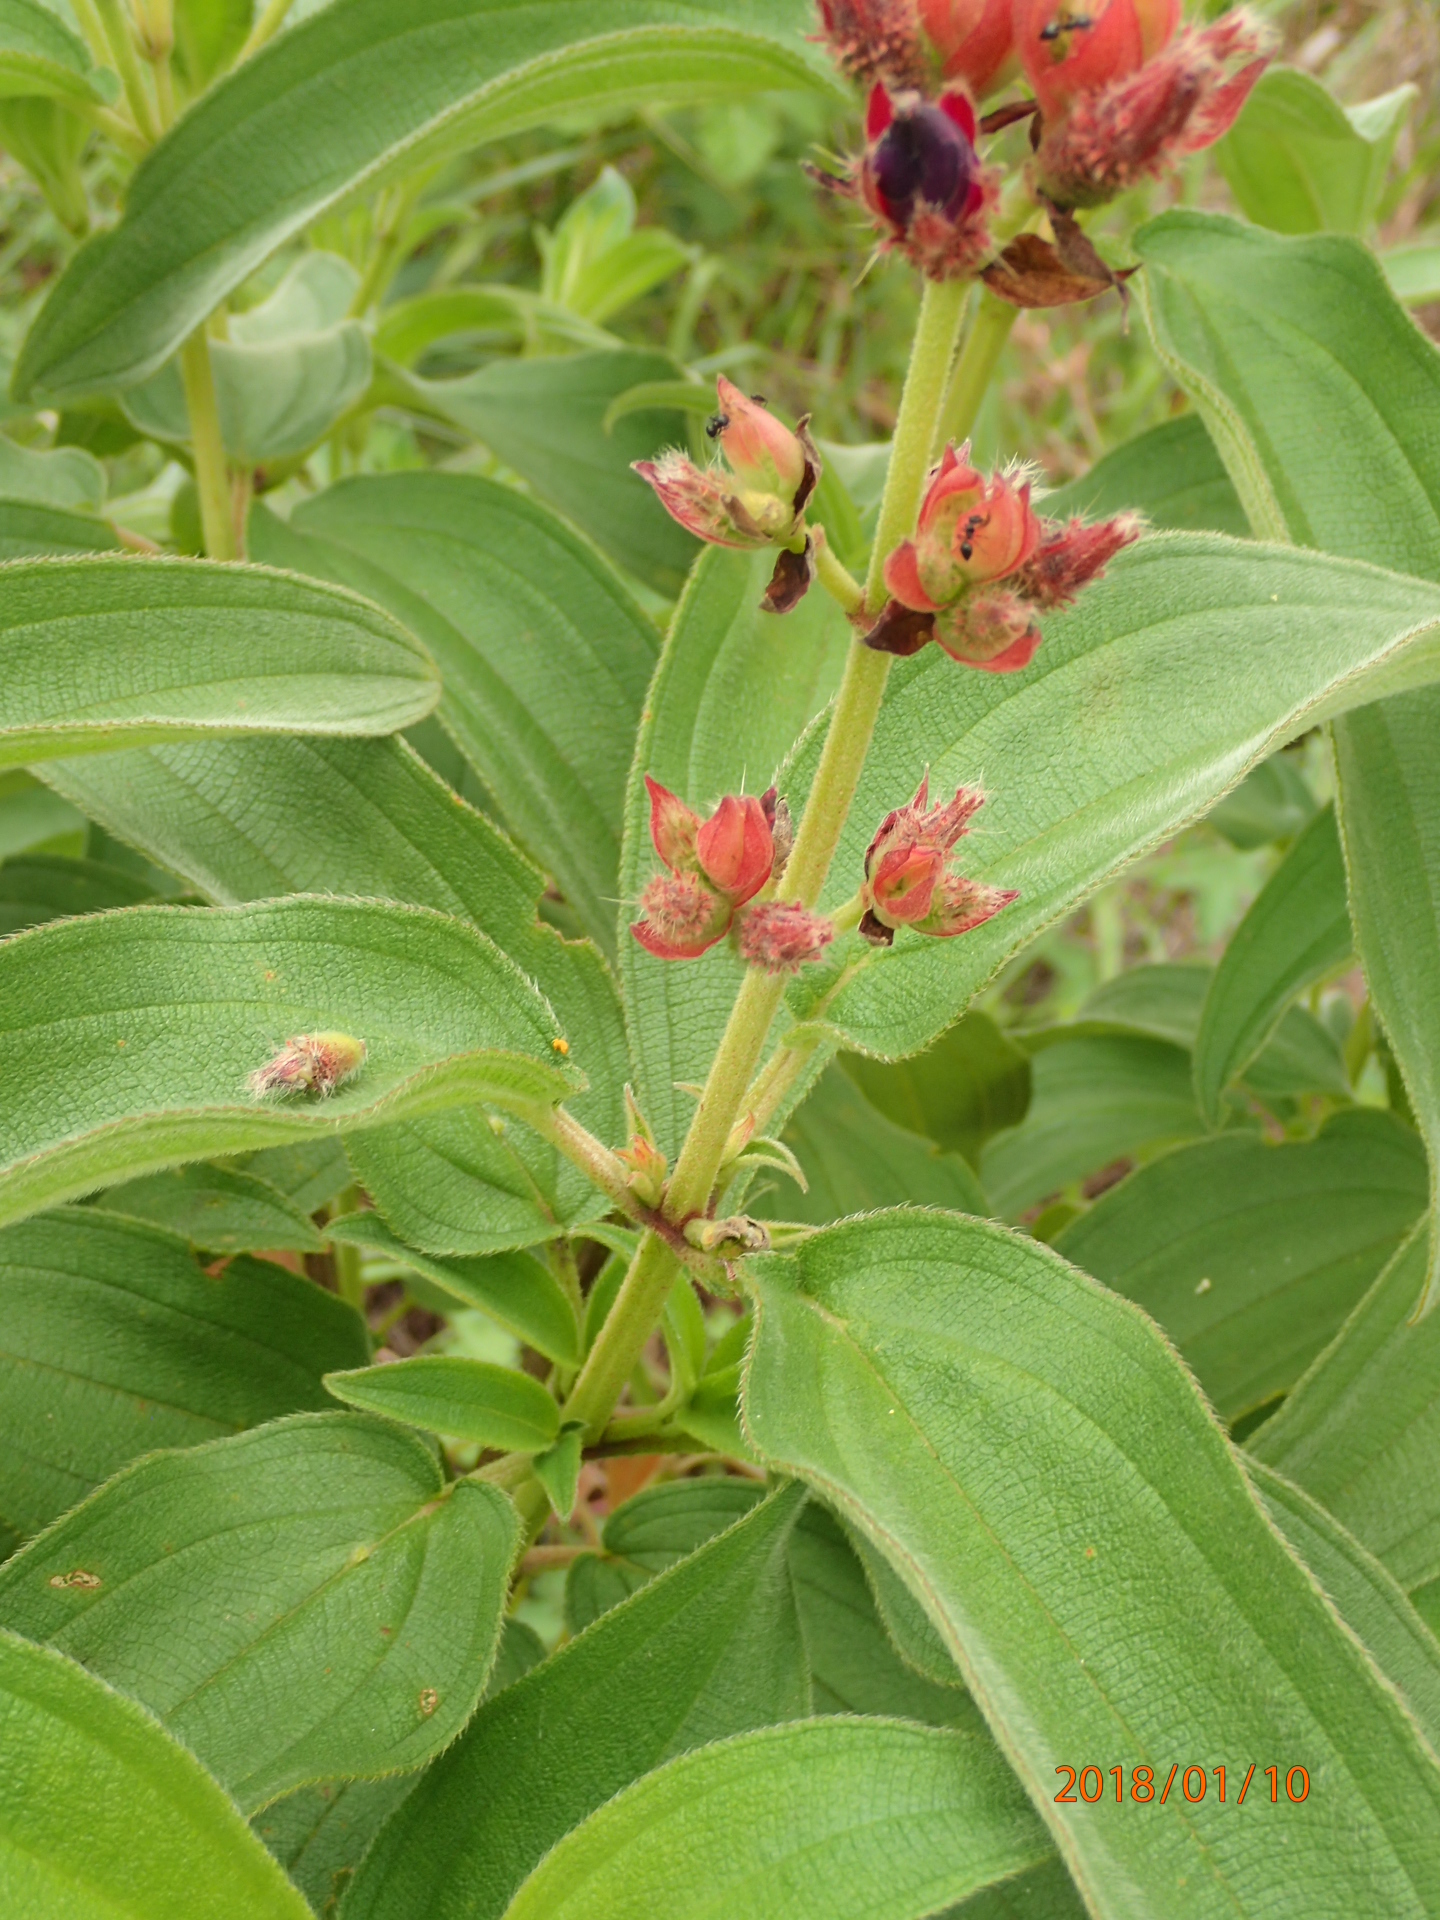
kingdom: Plantae
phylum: Tracheophyta
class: Magnoliopsida
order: Myrtales
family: Melastomataceae
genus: Rosettea
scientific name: Rosettea princeps
